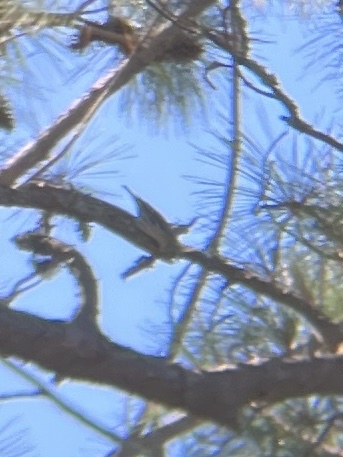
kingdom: Animalia
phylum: Chordata
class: Aves
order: Passeriformes
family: Parulidae
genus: Mniotilta
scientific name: Mniotilta varia
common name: Black-and-white warbler
